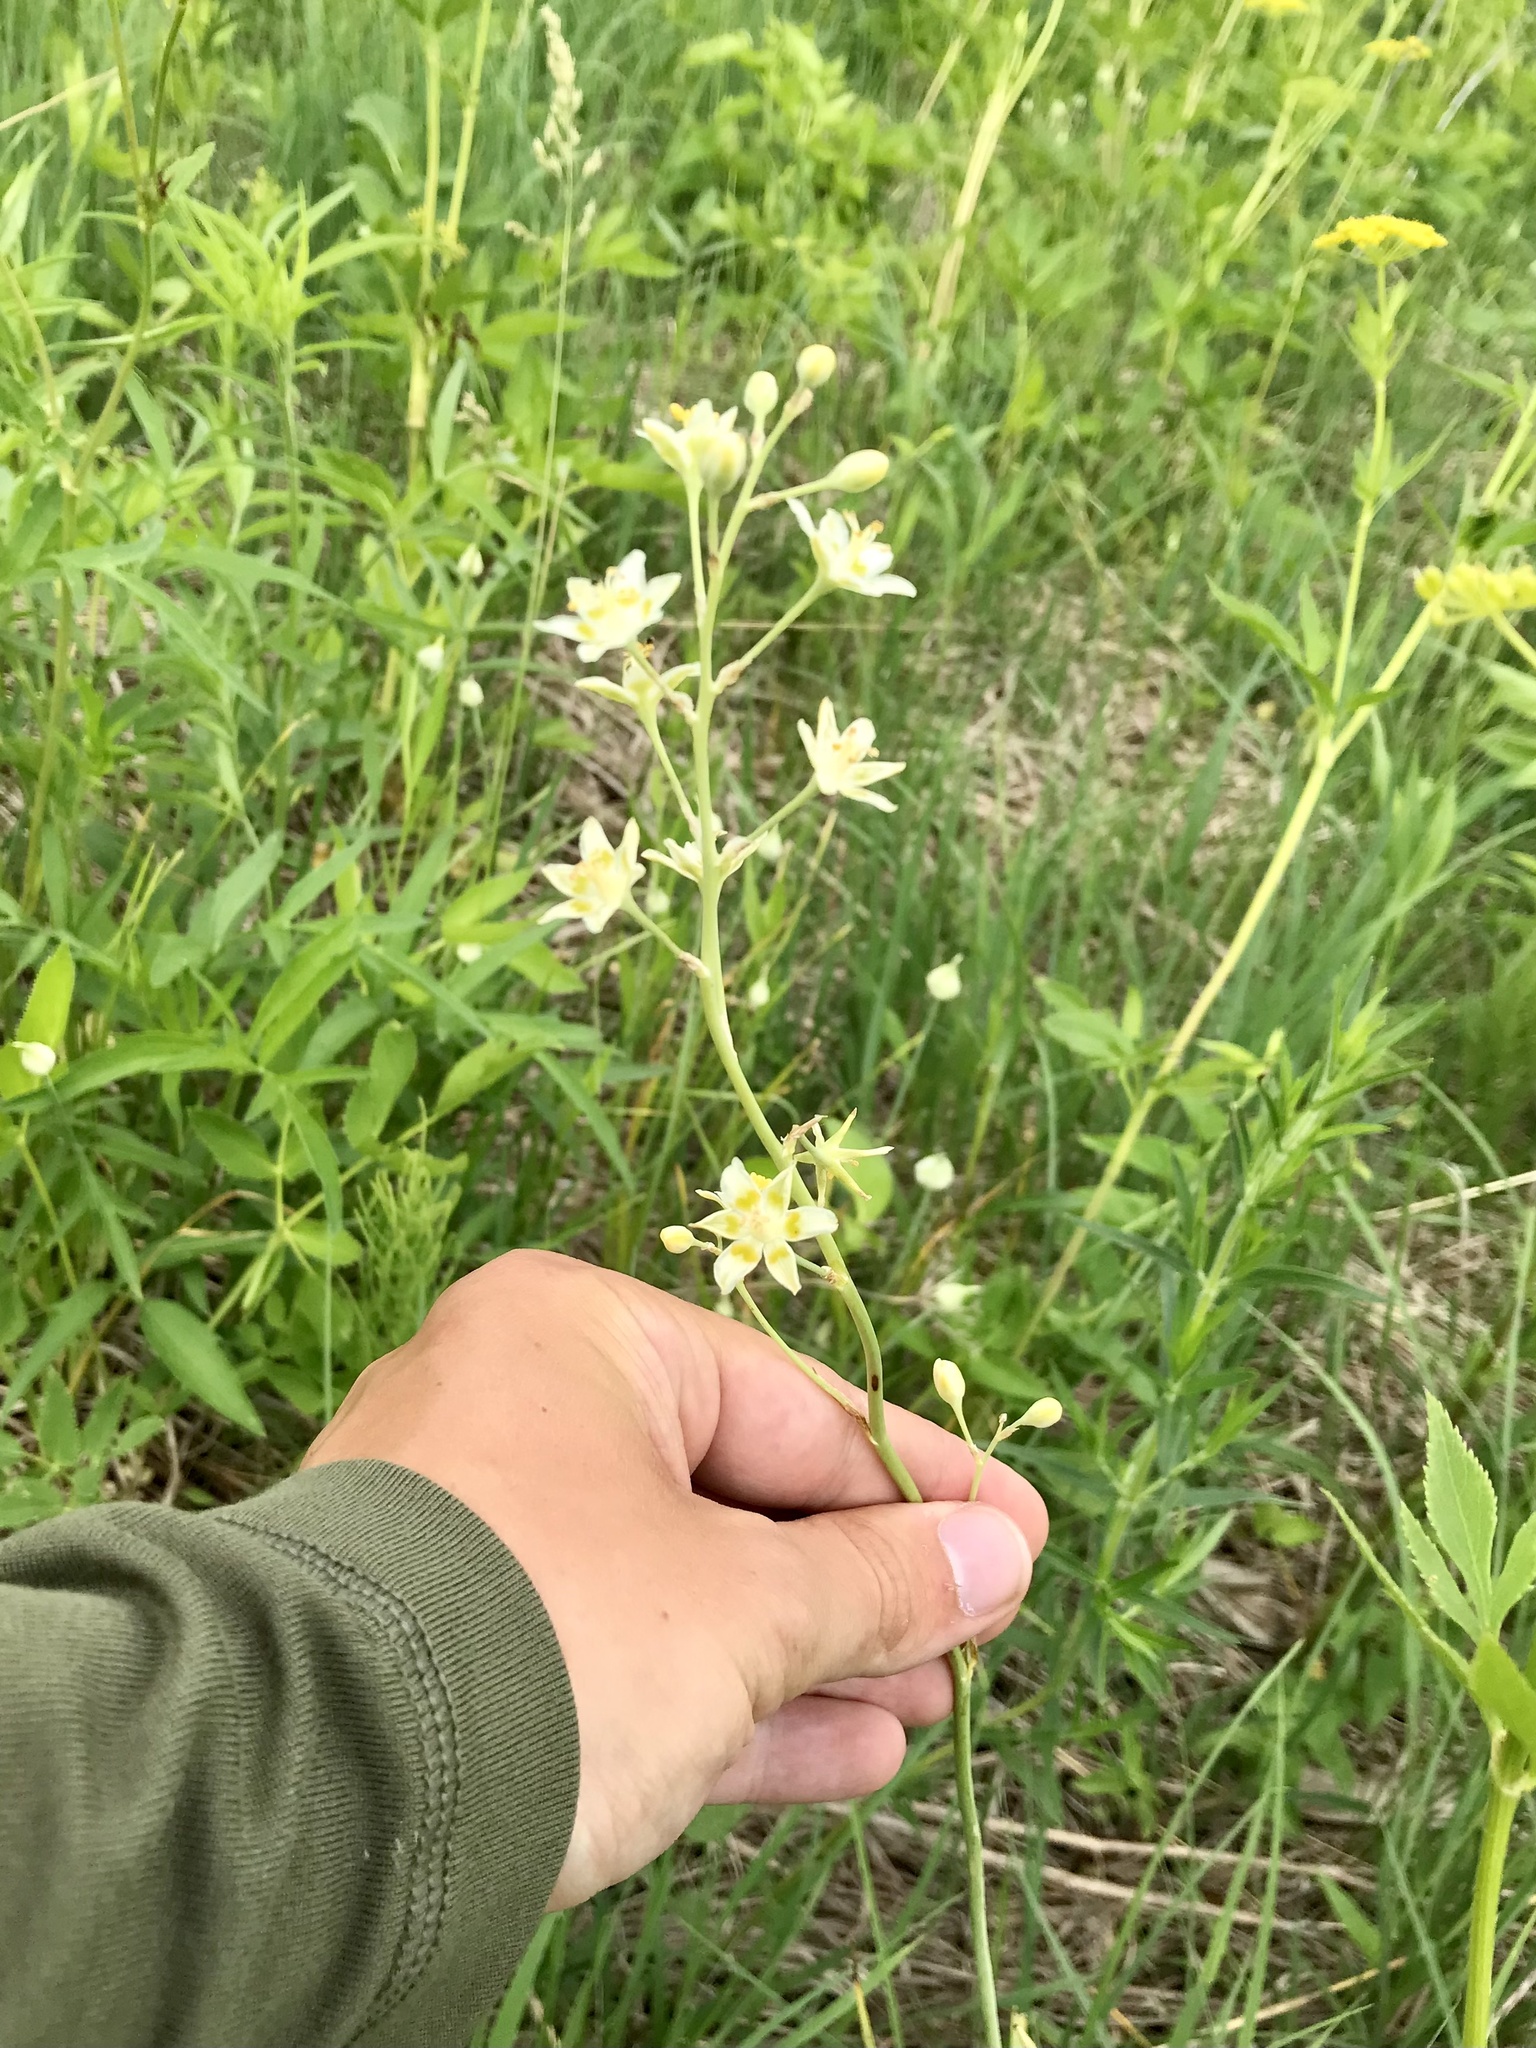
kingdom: Plantae
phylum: Tracheophyta
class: Liliopsida
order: Liliales
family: Melanthiaceae
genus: Anticlea
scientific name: Anticlea elegans
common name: Mountain death camas
